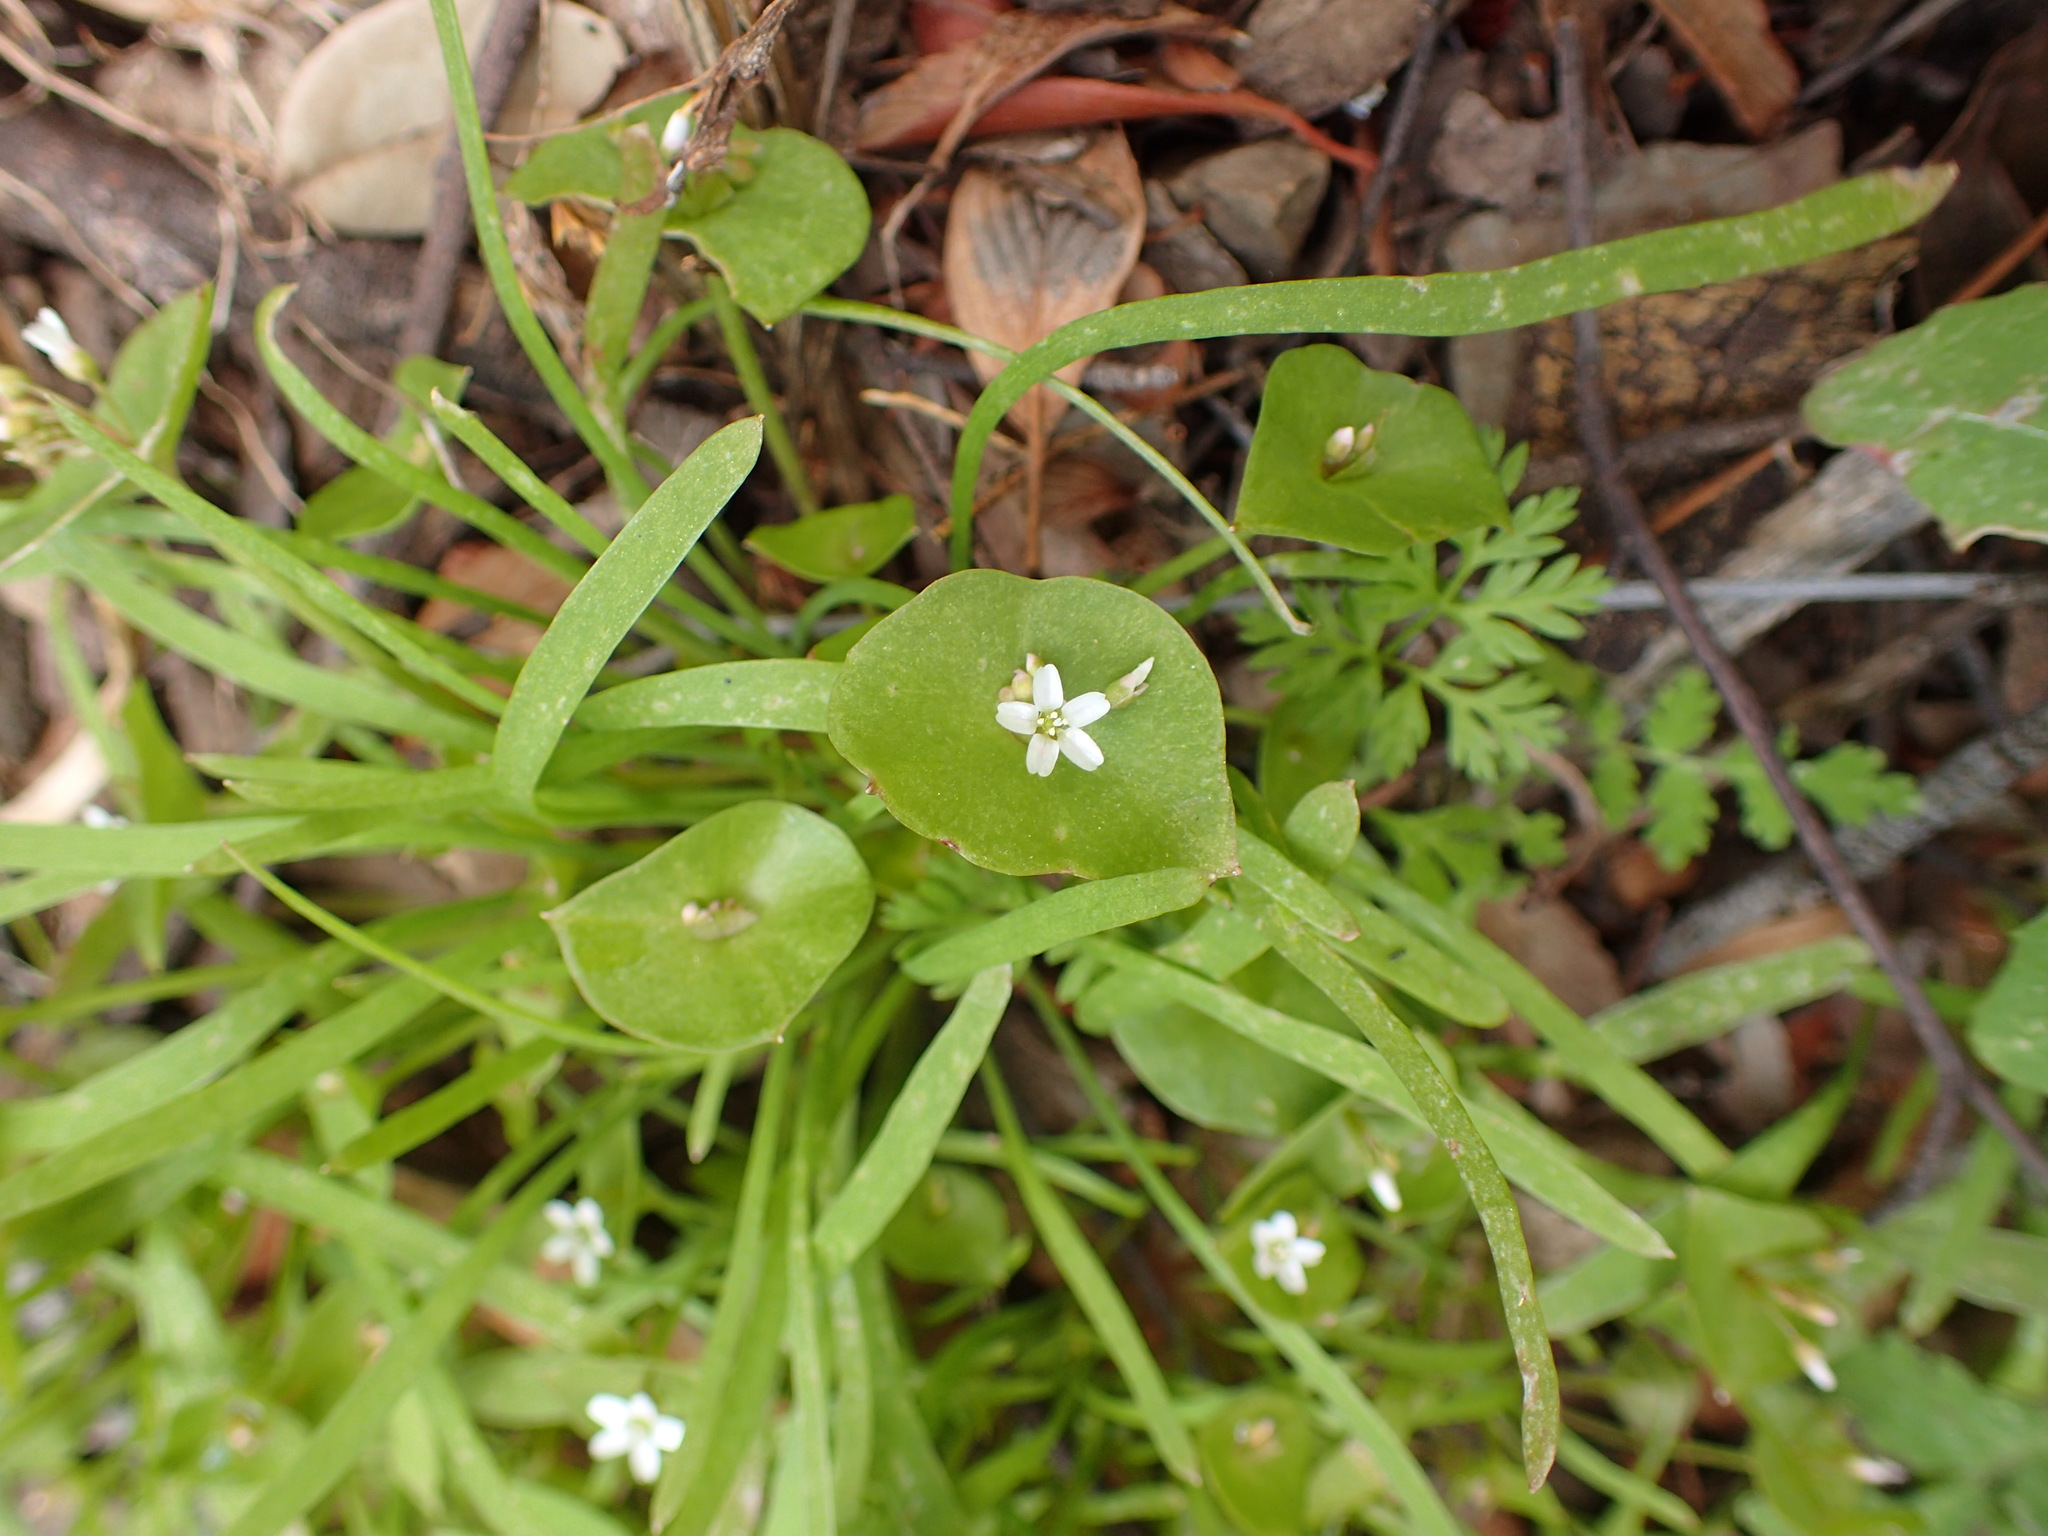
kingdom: Plantae
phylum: Tracheophyta
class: Magnoliopsida
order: Caryophyllales
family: Montiaceae
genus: Claytonia
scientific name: Claytonia perfoliata
